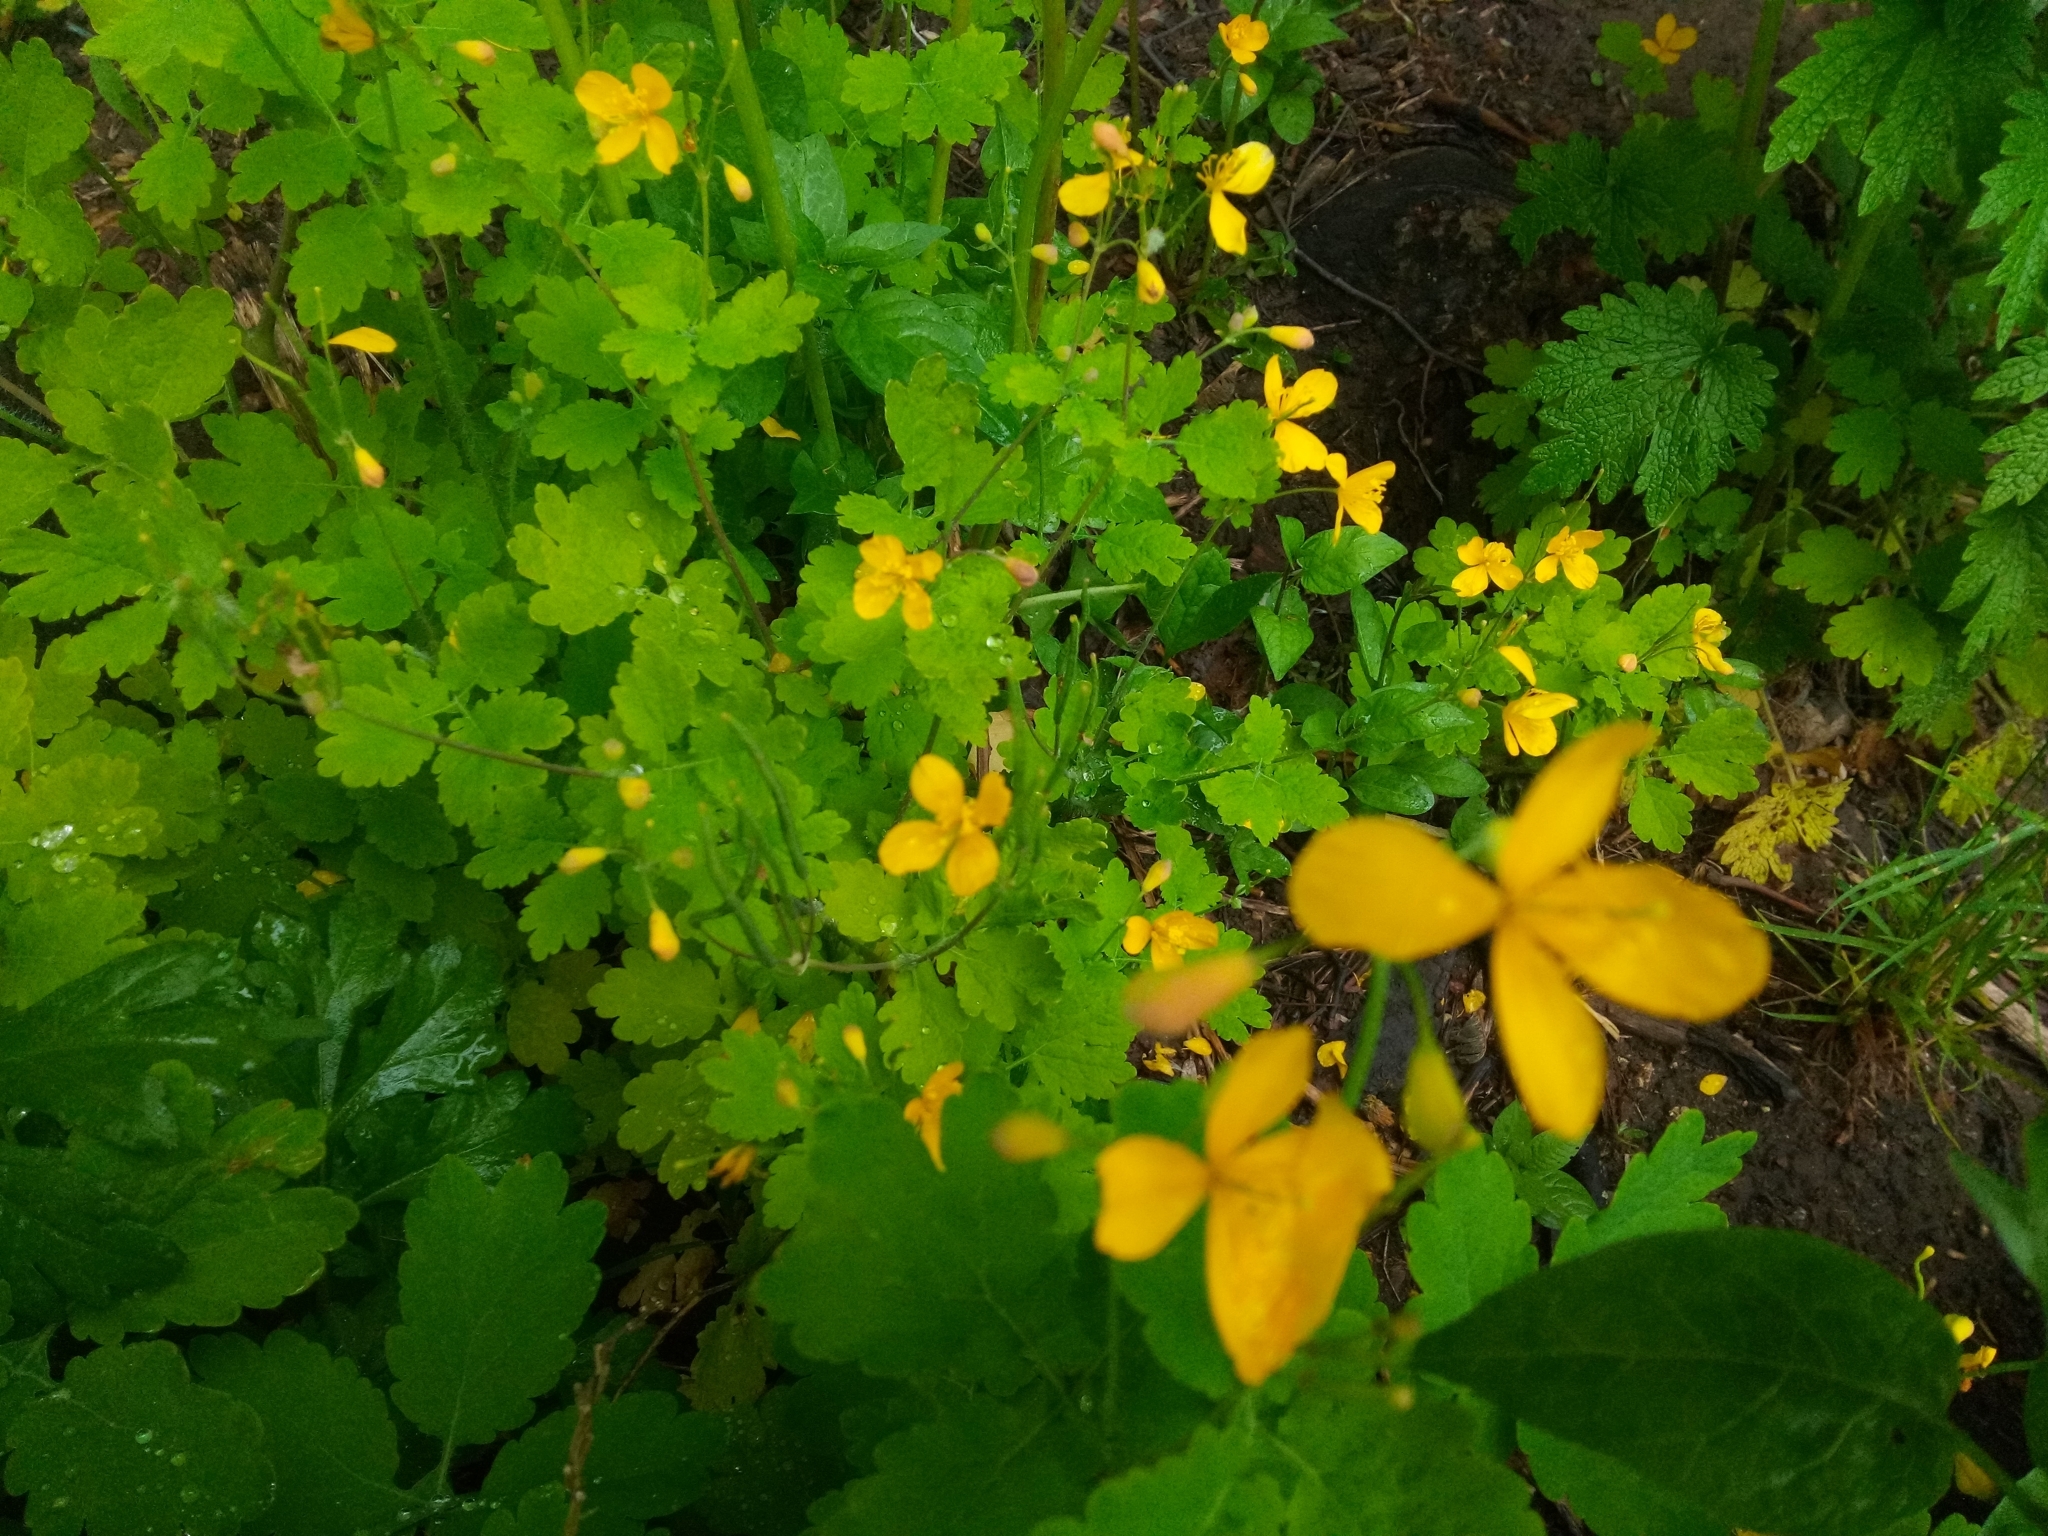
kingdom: Plantae
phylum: Tracheophyta
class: Magnoliopsida
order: Ranunculales
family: Papaveraceae
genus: Chelidonium
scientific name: Chelidonium majus
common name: Greater celandine
